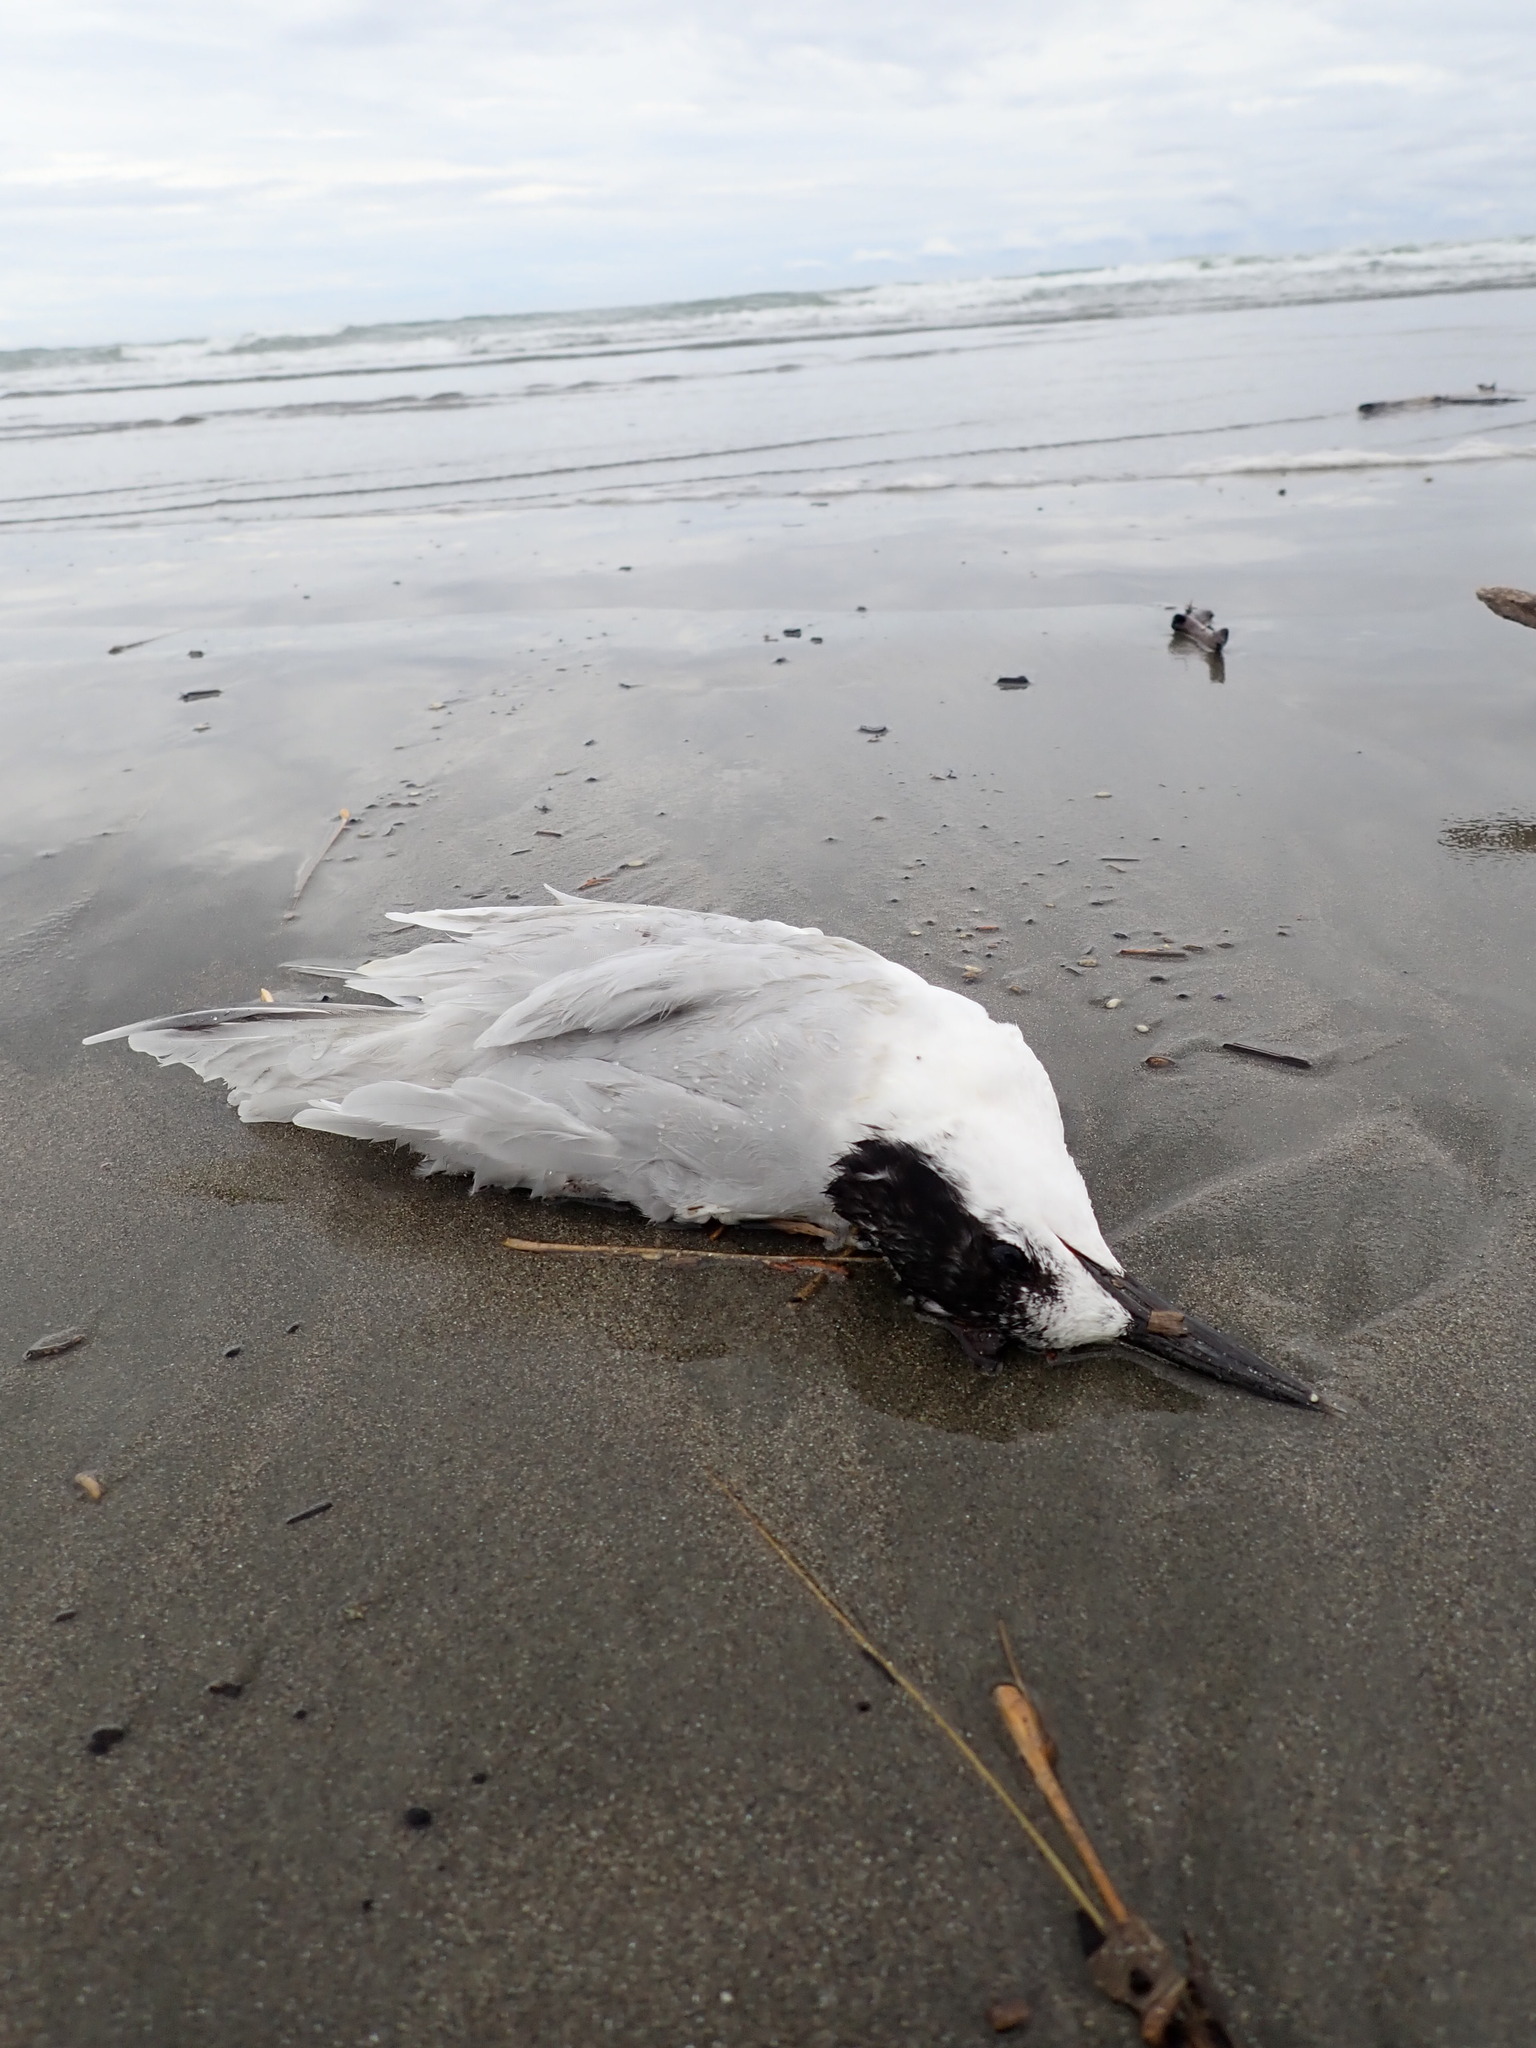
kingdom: Animalia
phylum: Chordata
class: Aves
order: Charadriiformes
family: Laridae
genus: Sterna
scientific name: Sterna striata
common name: White-fronted tern
